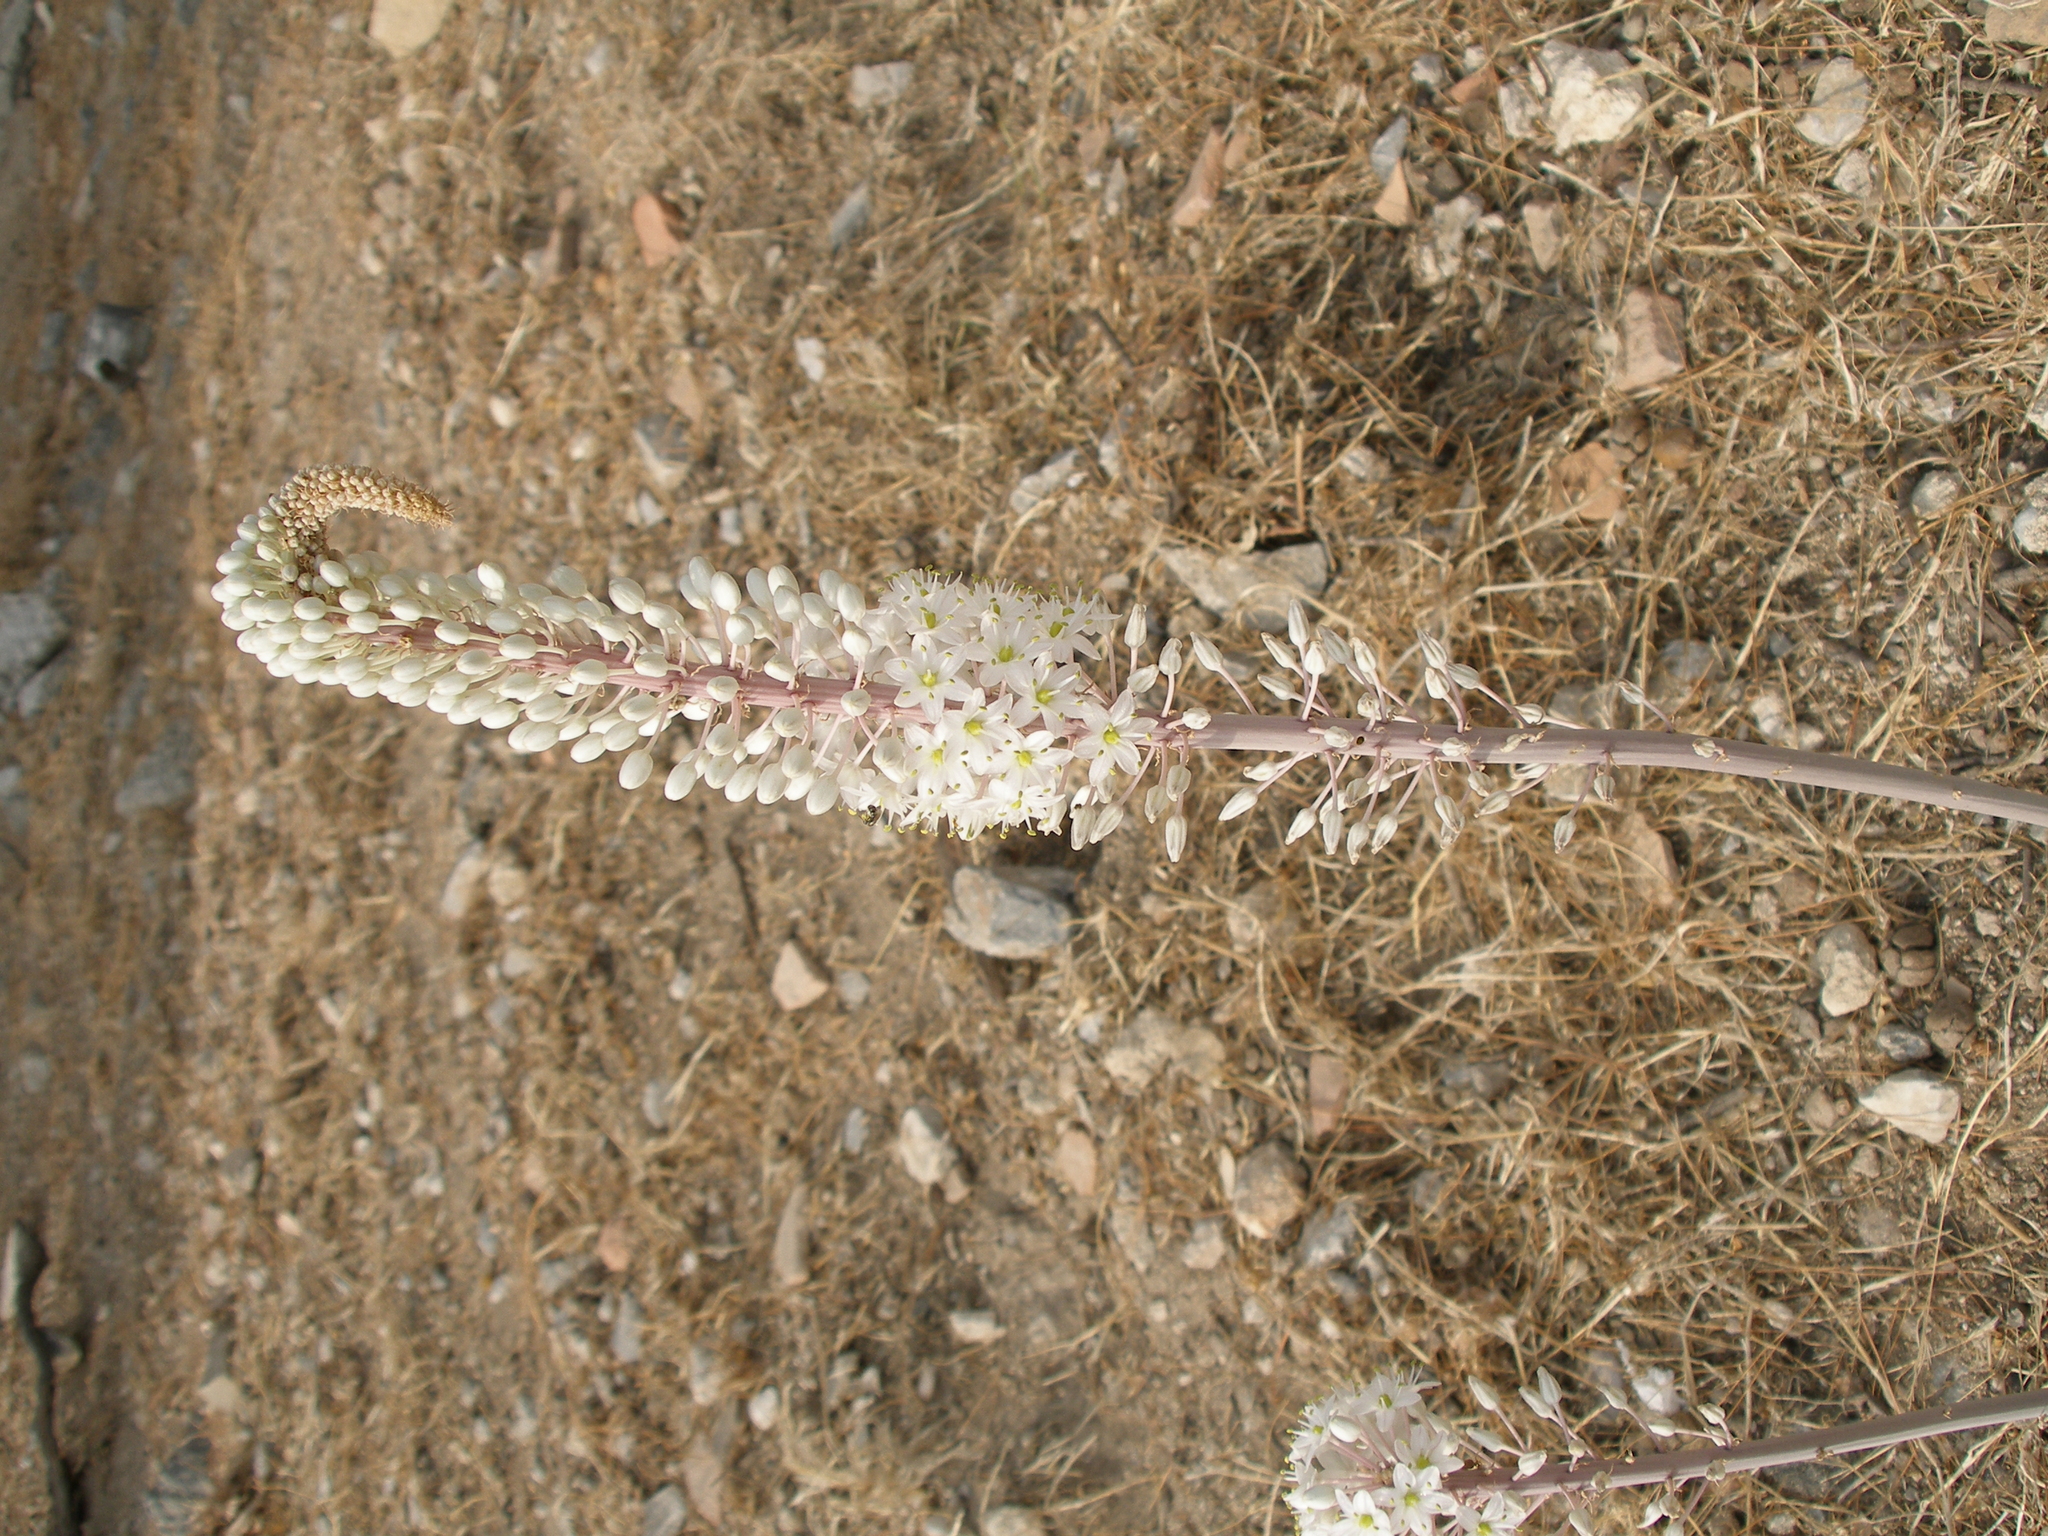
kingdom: Plantae
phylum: Tracheophyta
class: Liliopsida
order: Asparagales
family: Asparagaceae
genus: Drimia
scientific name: Drimia aphylla
